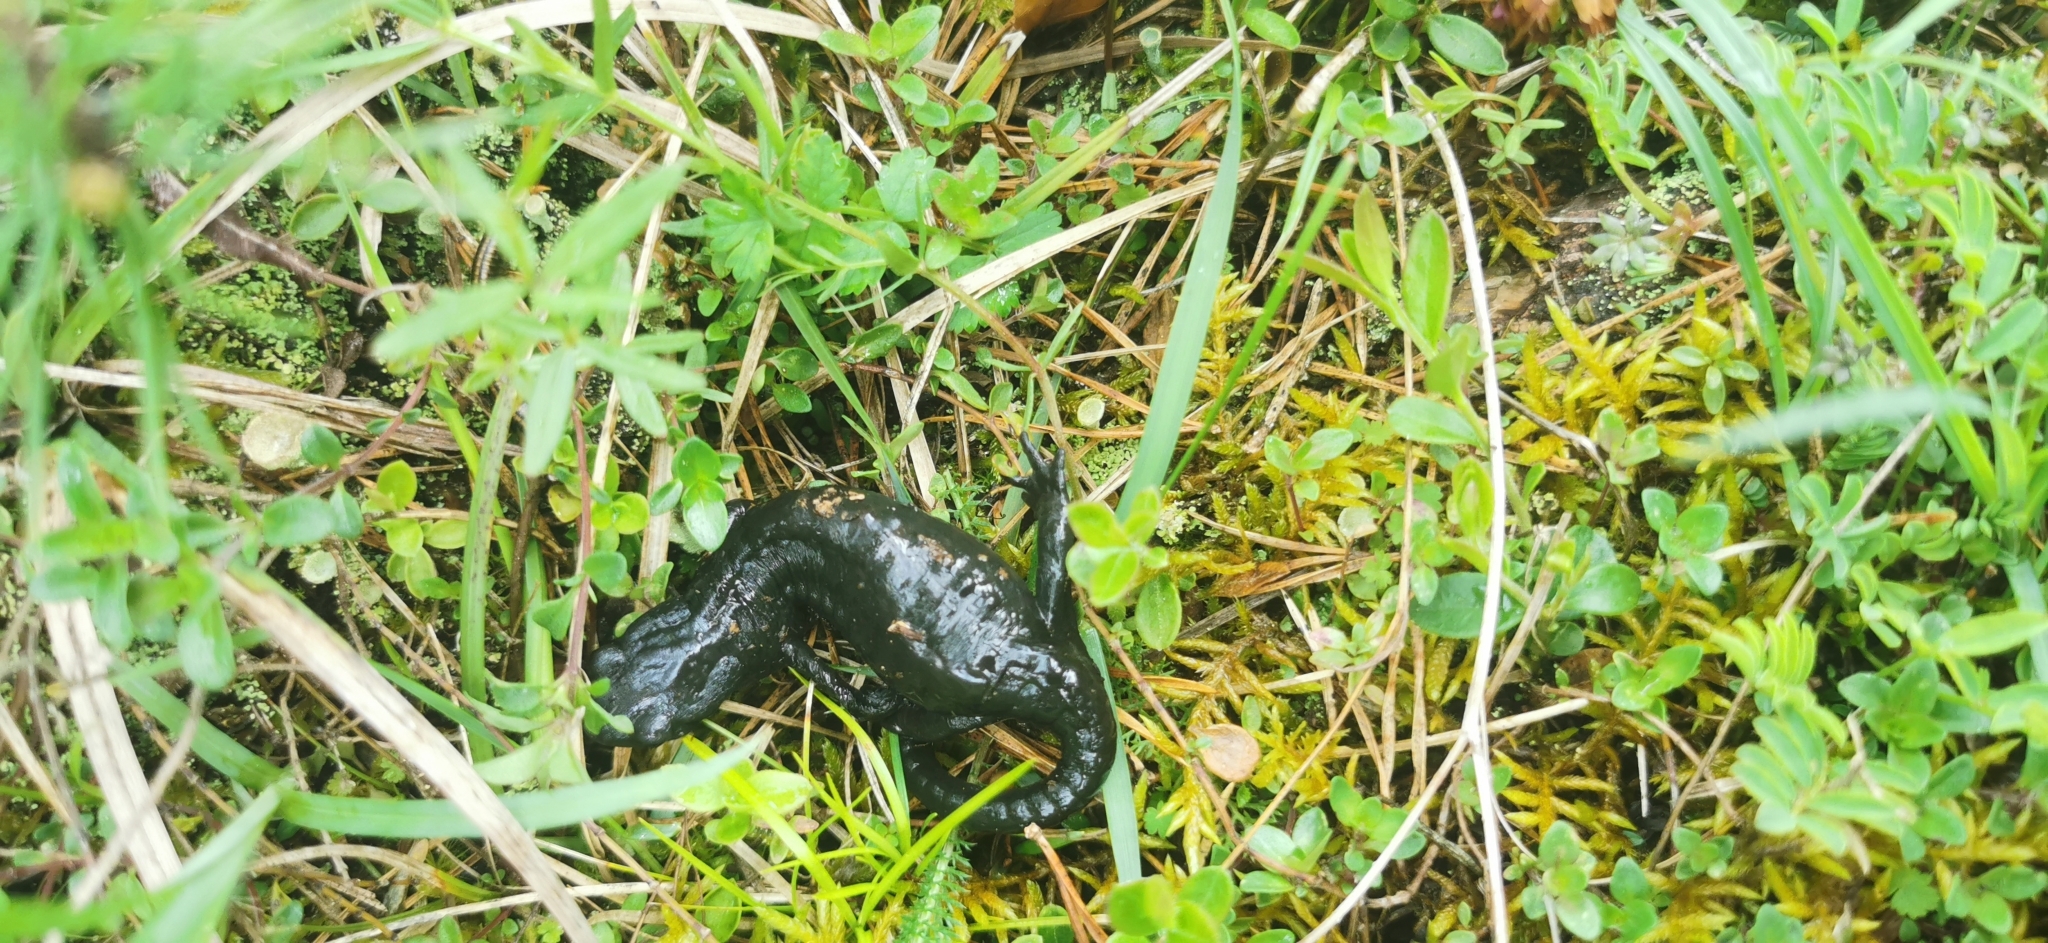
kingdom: Animalia
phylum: Chordata
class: Amphibia
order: Caudata
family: Salamandridae
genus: Salamandra
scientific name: Salamandra atra
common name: Alpine salamander
